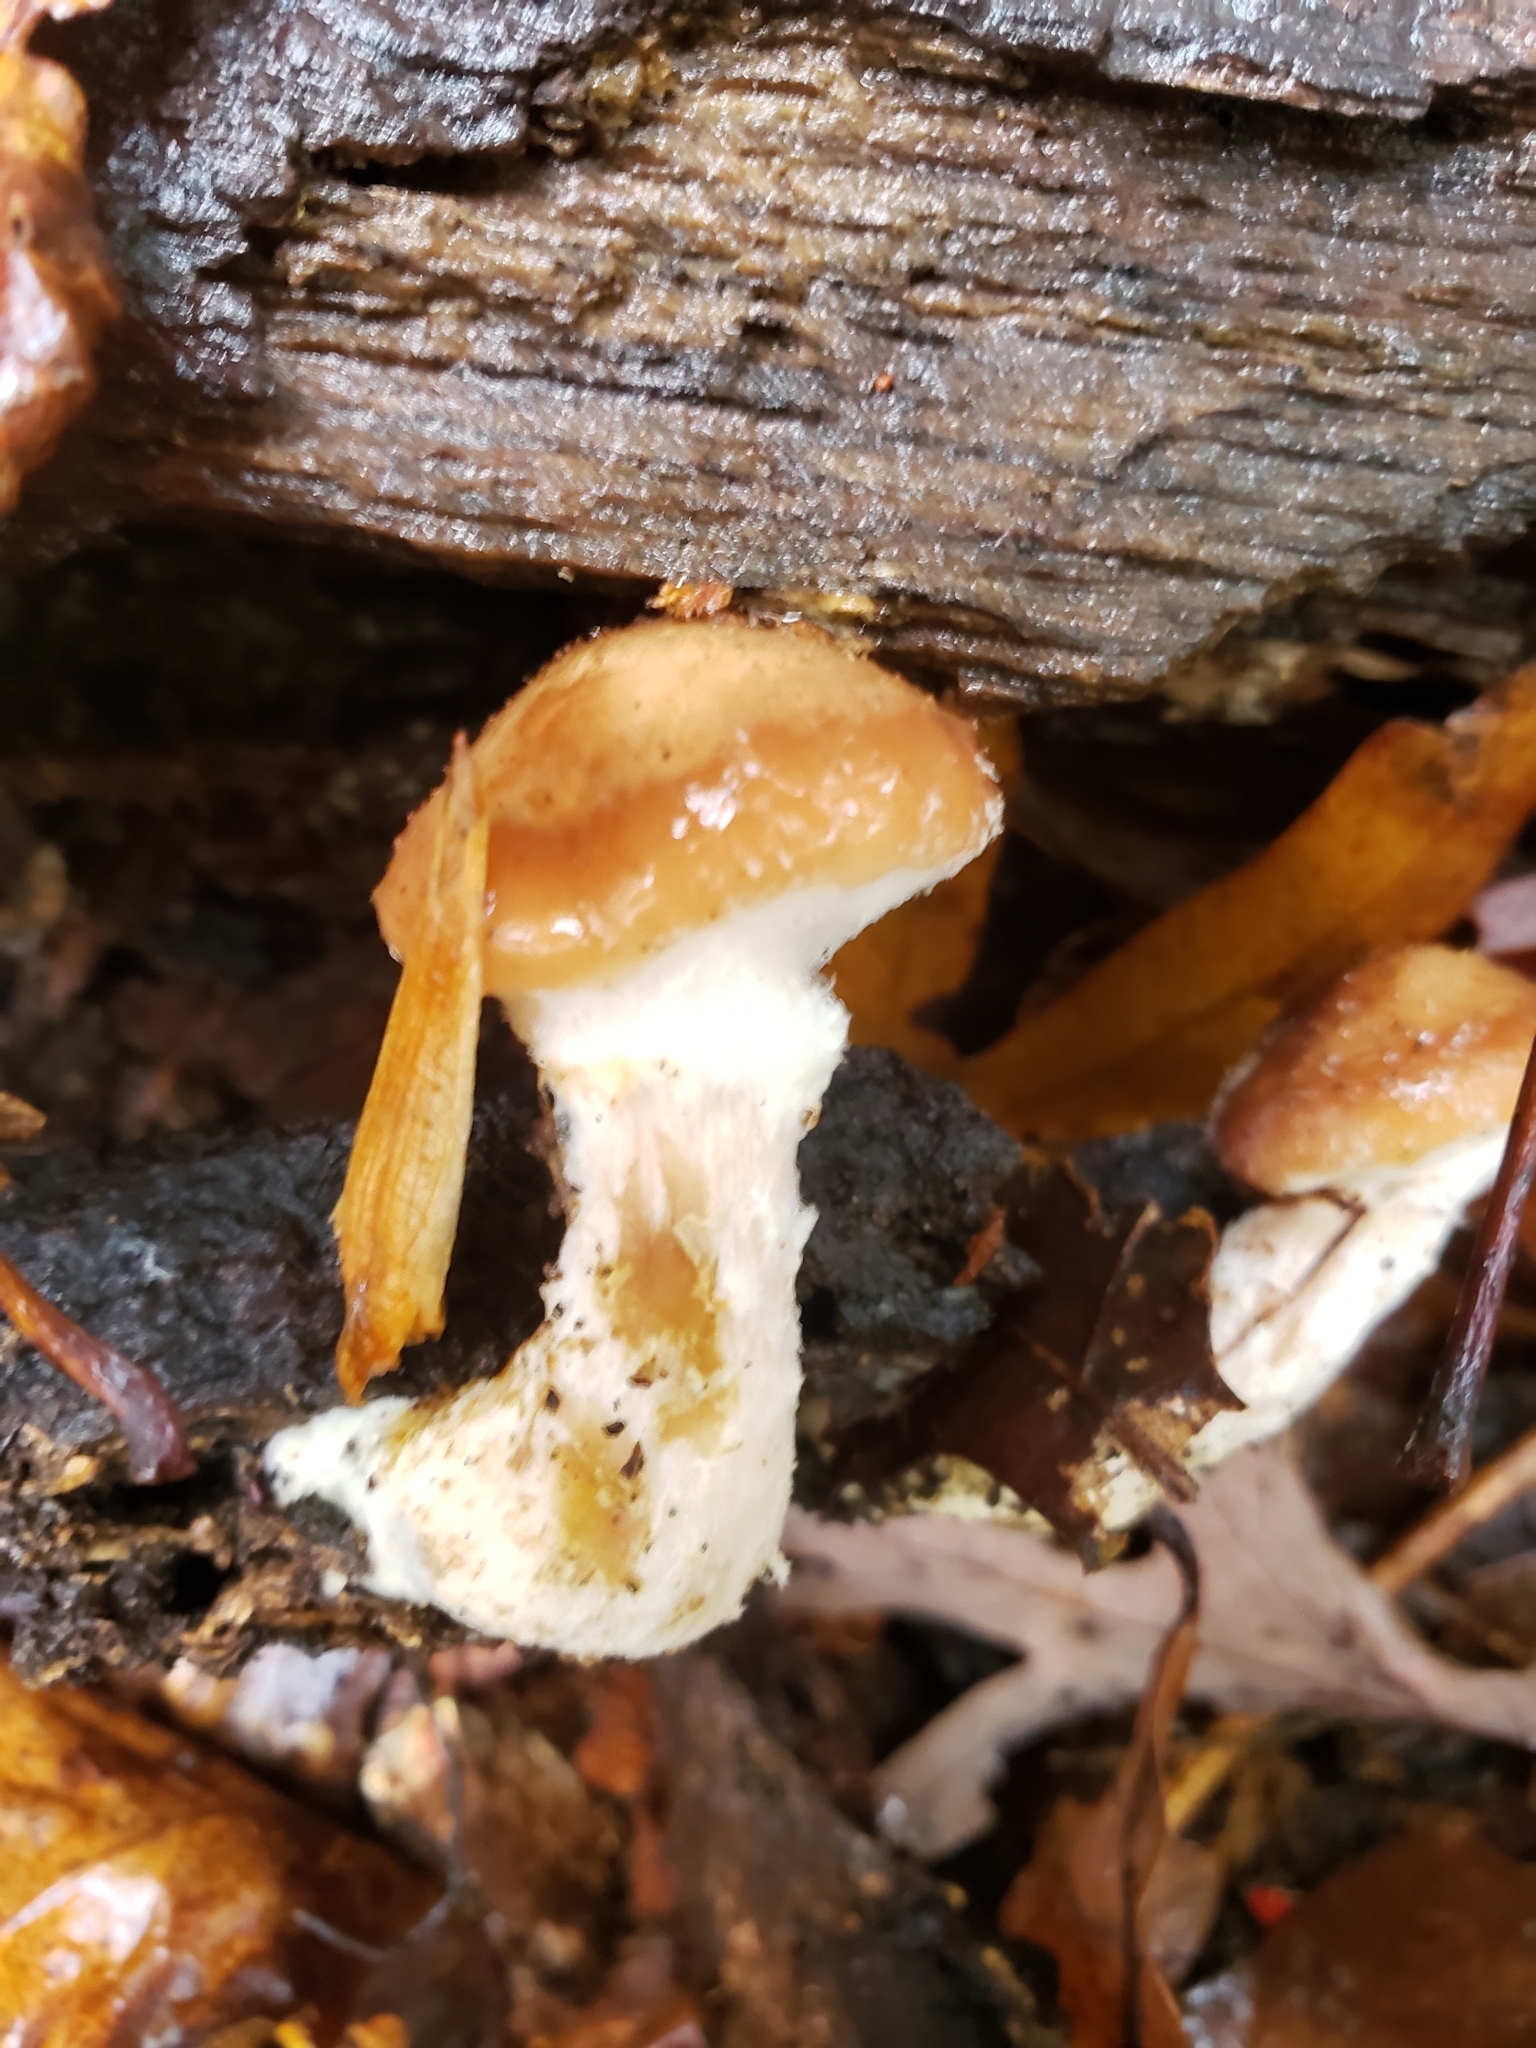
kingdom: Fungi
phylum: Basidiomycota
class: Agaricomycetes
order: Agaricales
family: Physalacriaceae
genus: Armillaria
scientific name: Armillaria gallica
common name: Bulbous honey fungus
